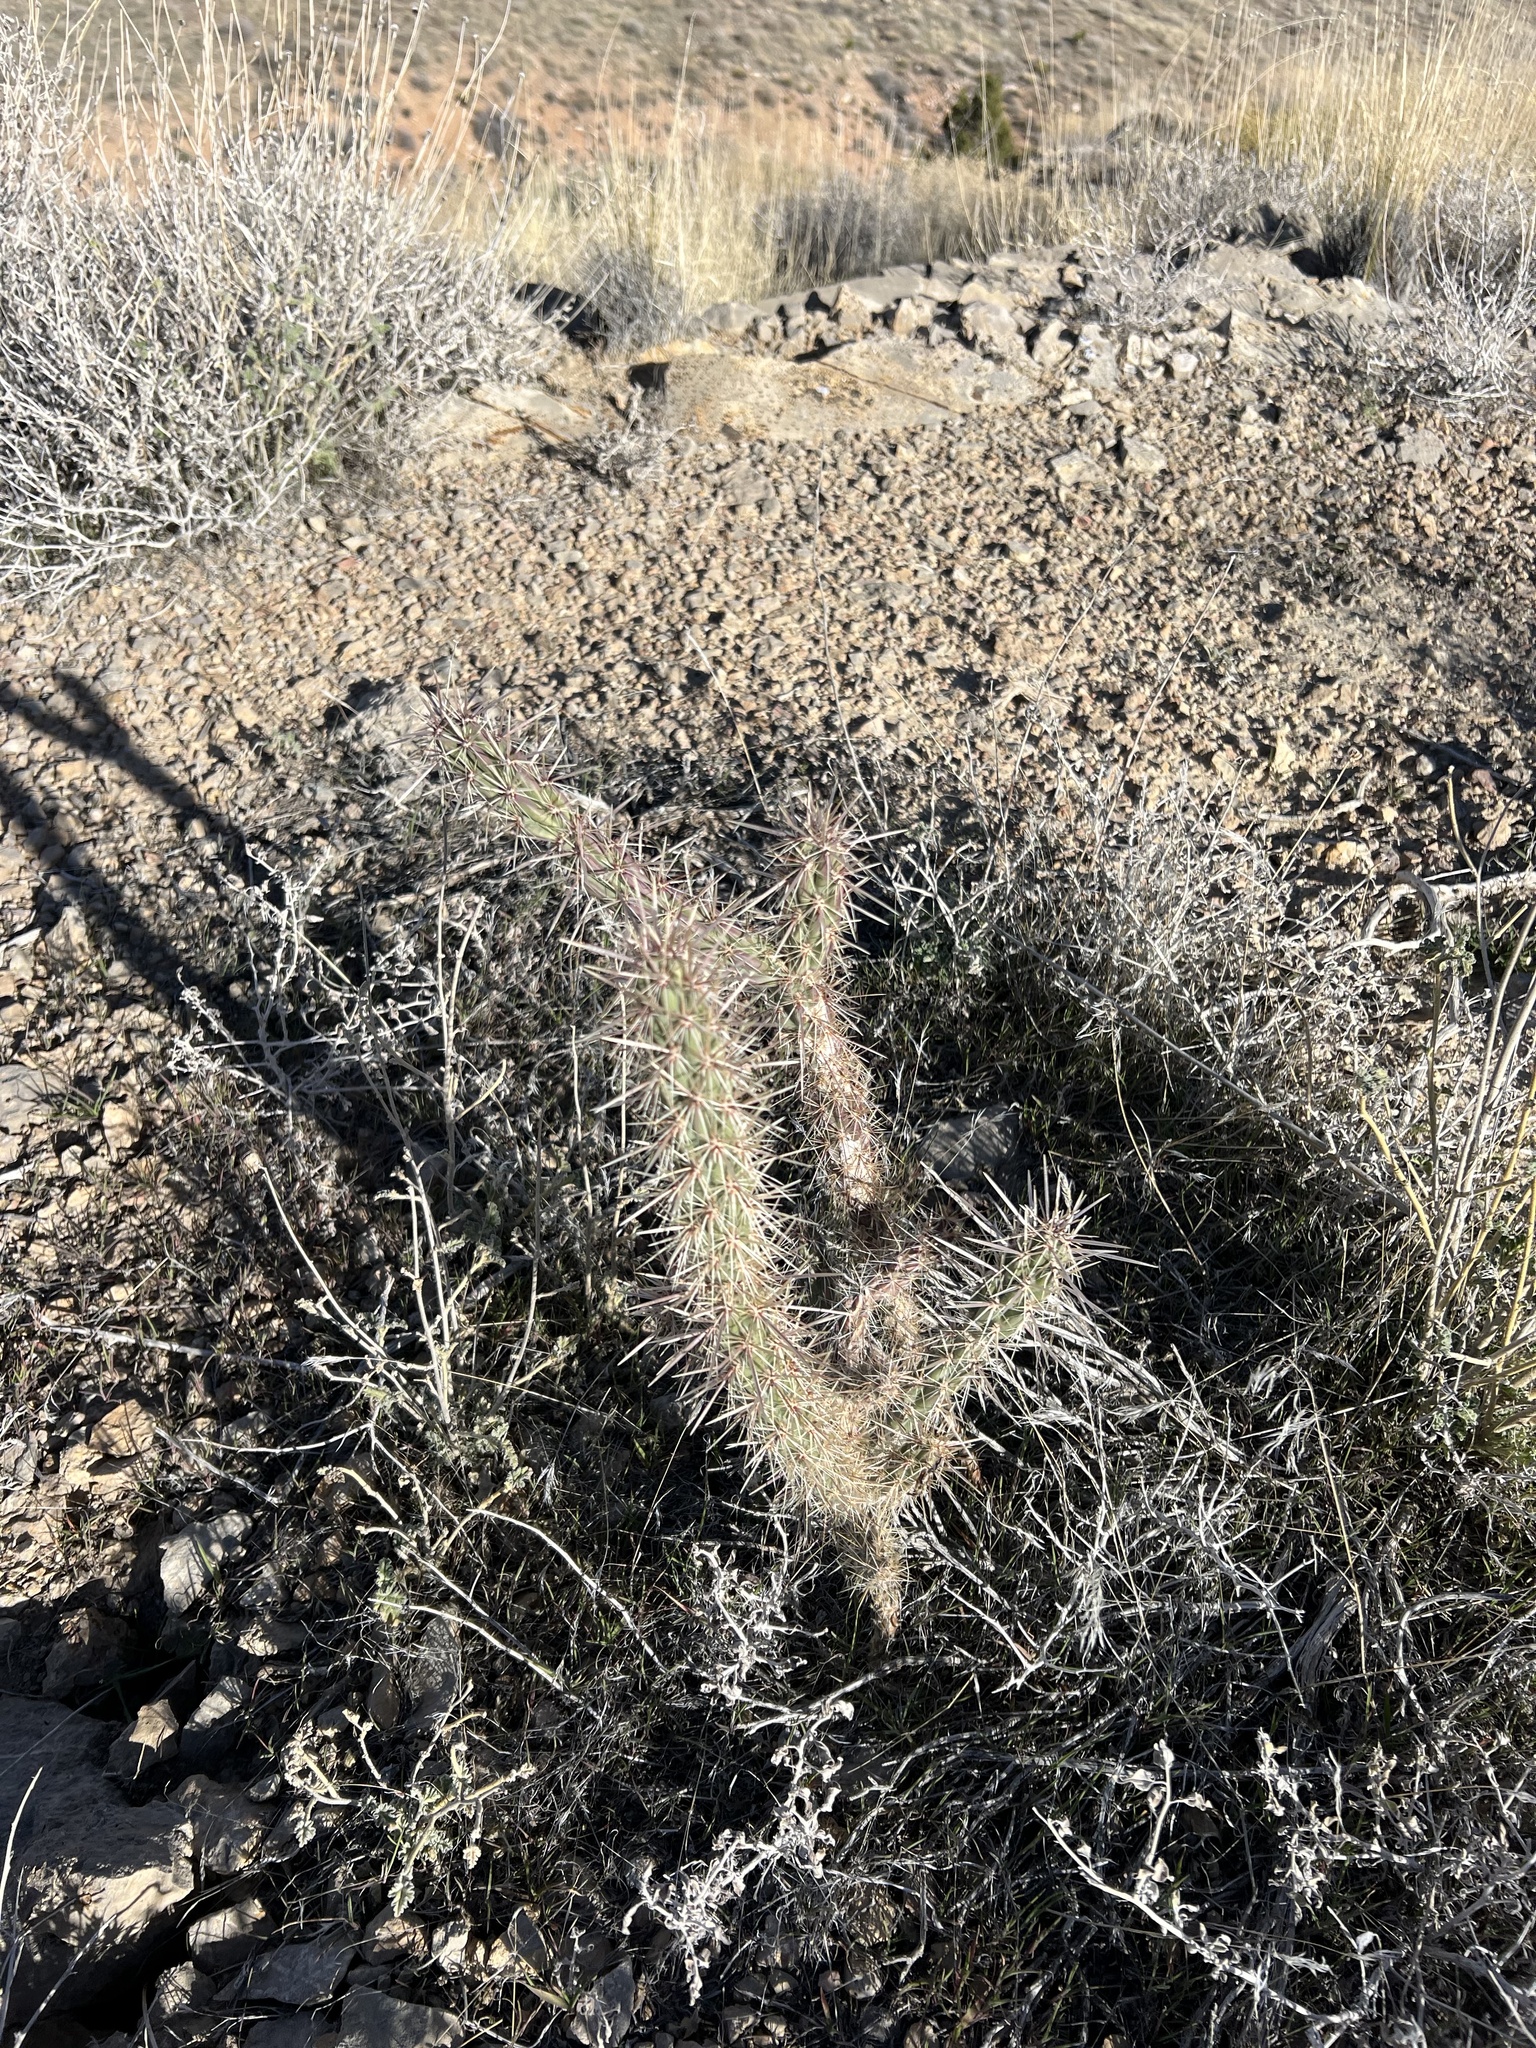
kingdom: Plantae
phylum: Tracheophyta
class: Magnoliopsida
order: Caryophyllales
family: Cactaceae
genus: Cylindropuntia
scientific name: Cylindropuntia acanthocarpa
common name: Buckhorn cholla
